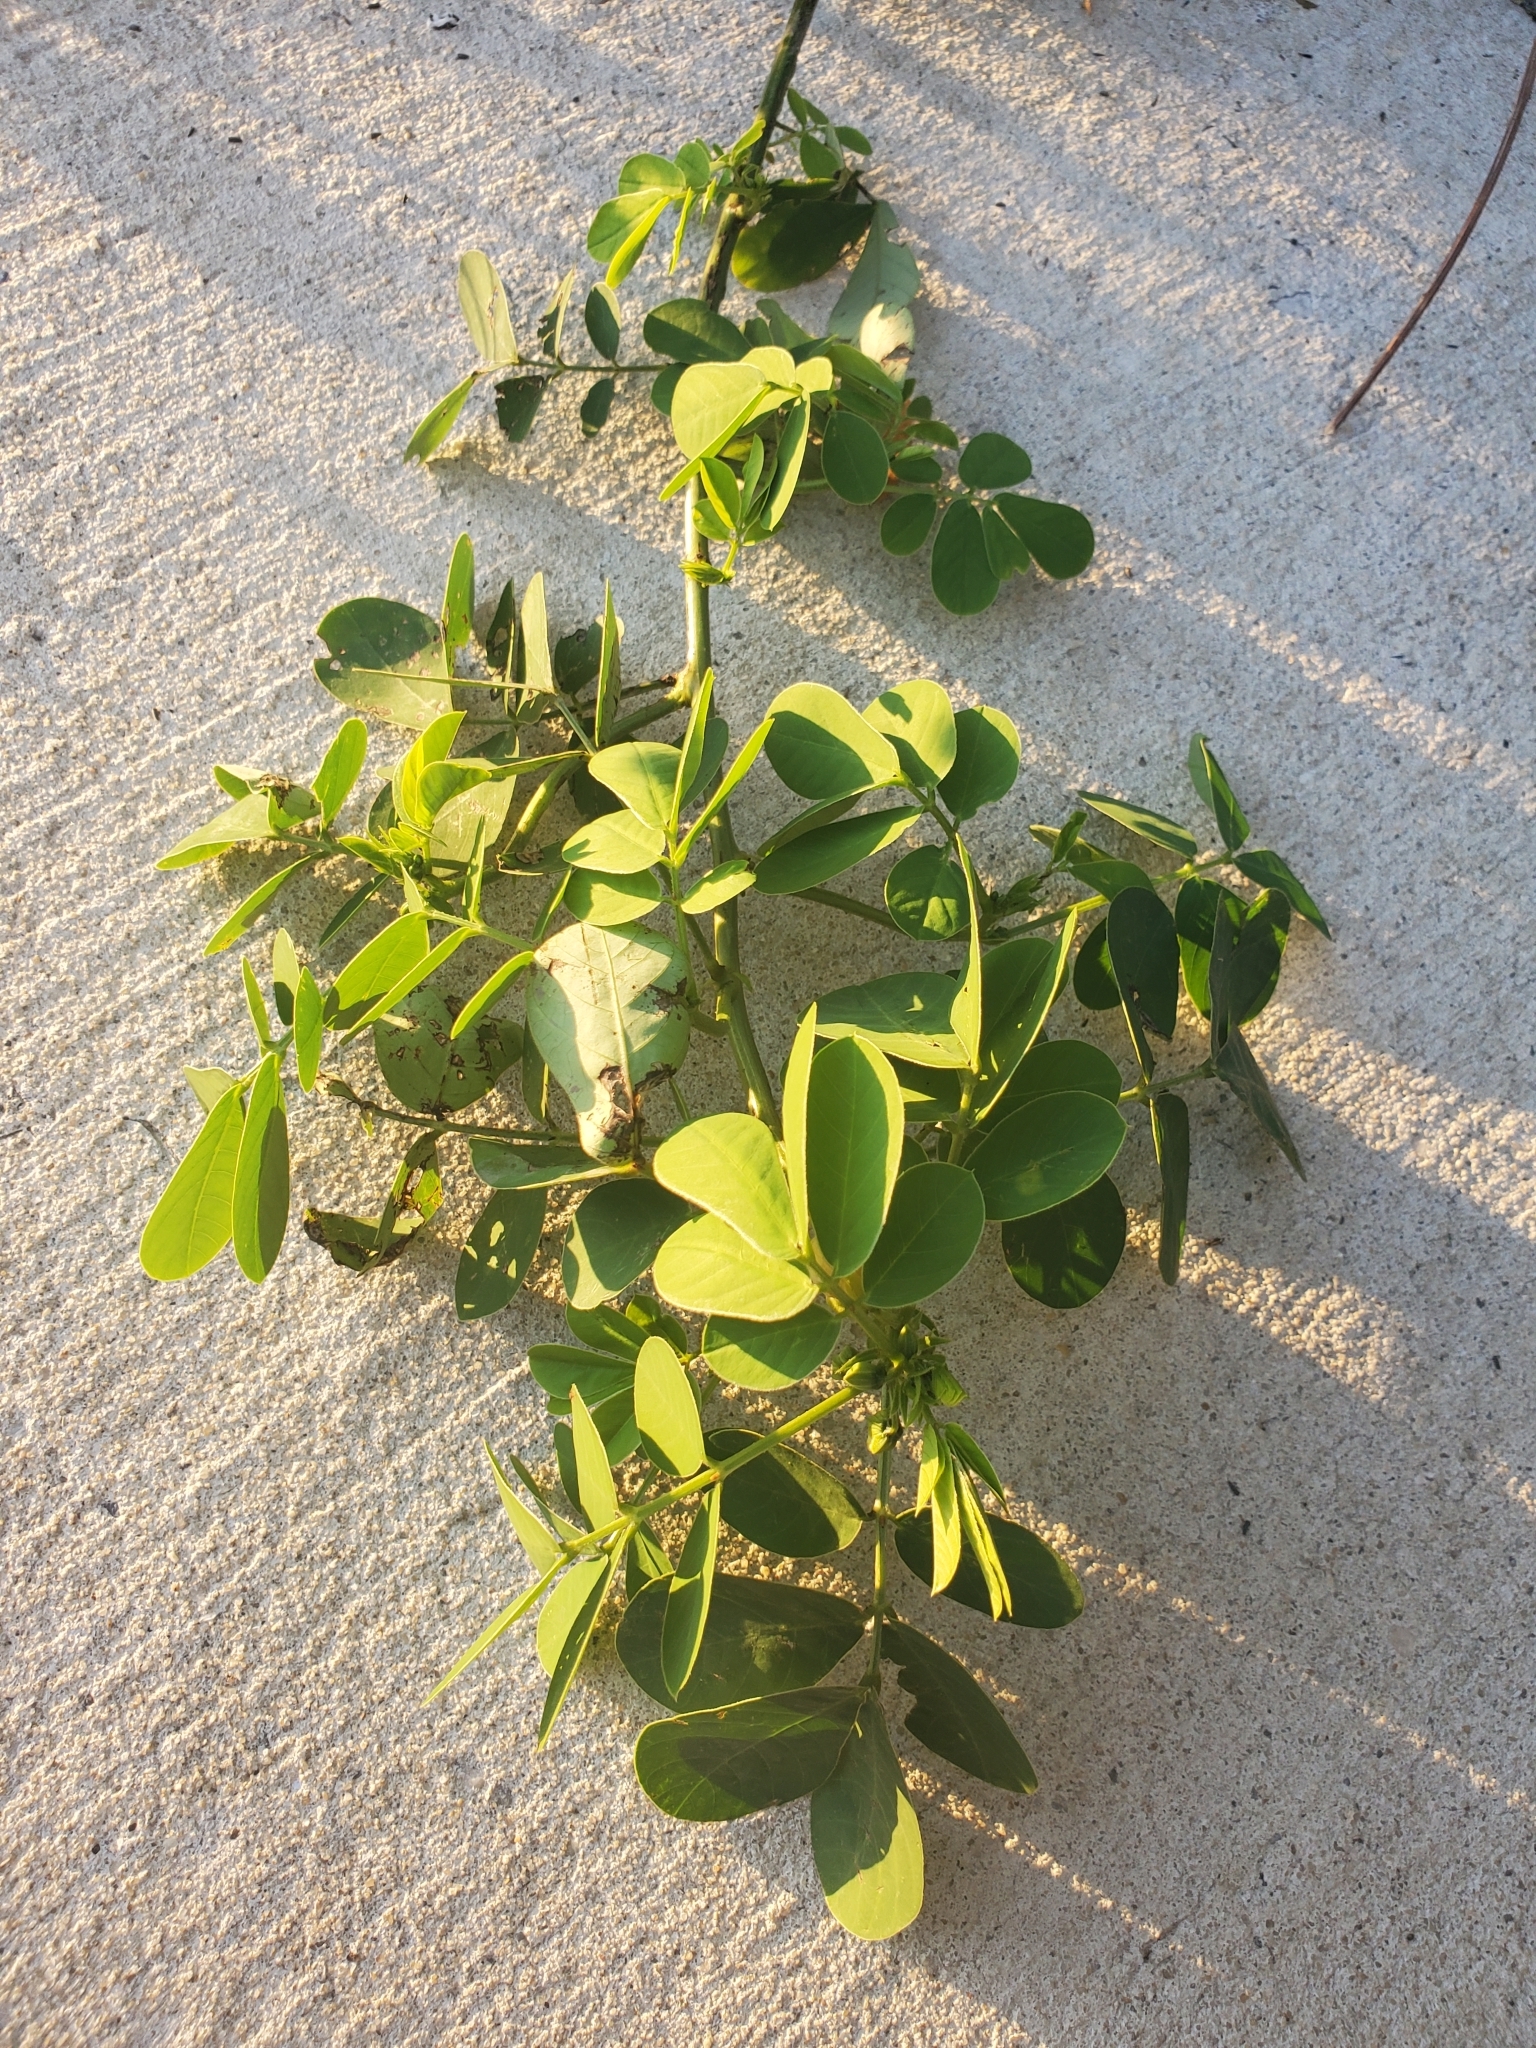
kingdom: Plantae
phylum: Tracheophyta
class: Magnoliopsida
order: Fabales
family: Fabaceae
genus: Senna
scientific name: Senna obtusifolia
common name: Java-bean
